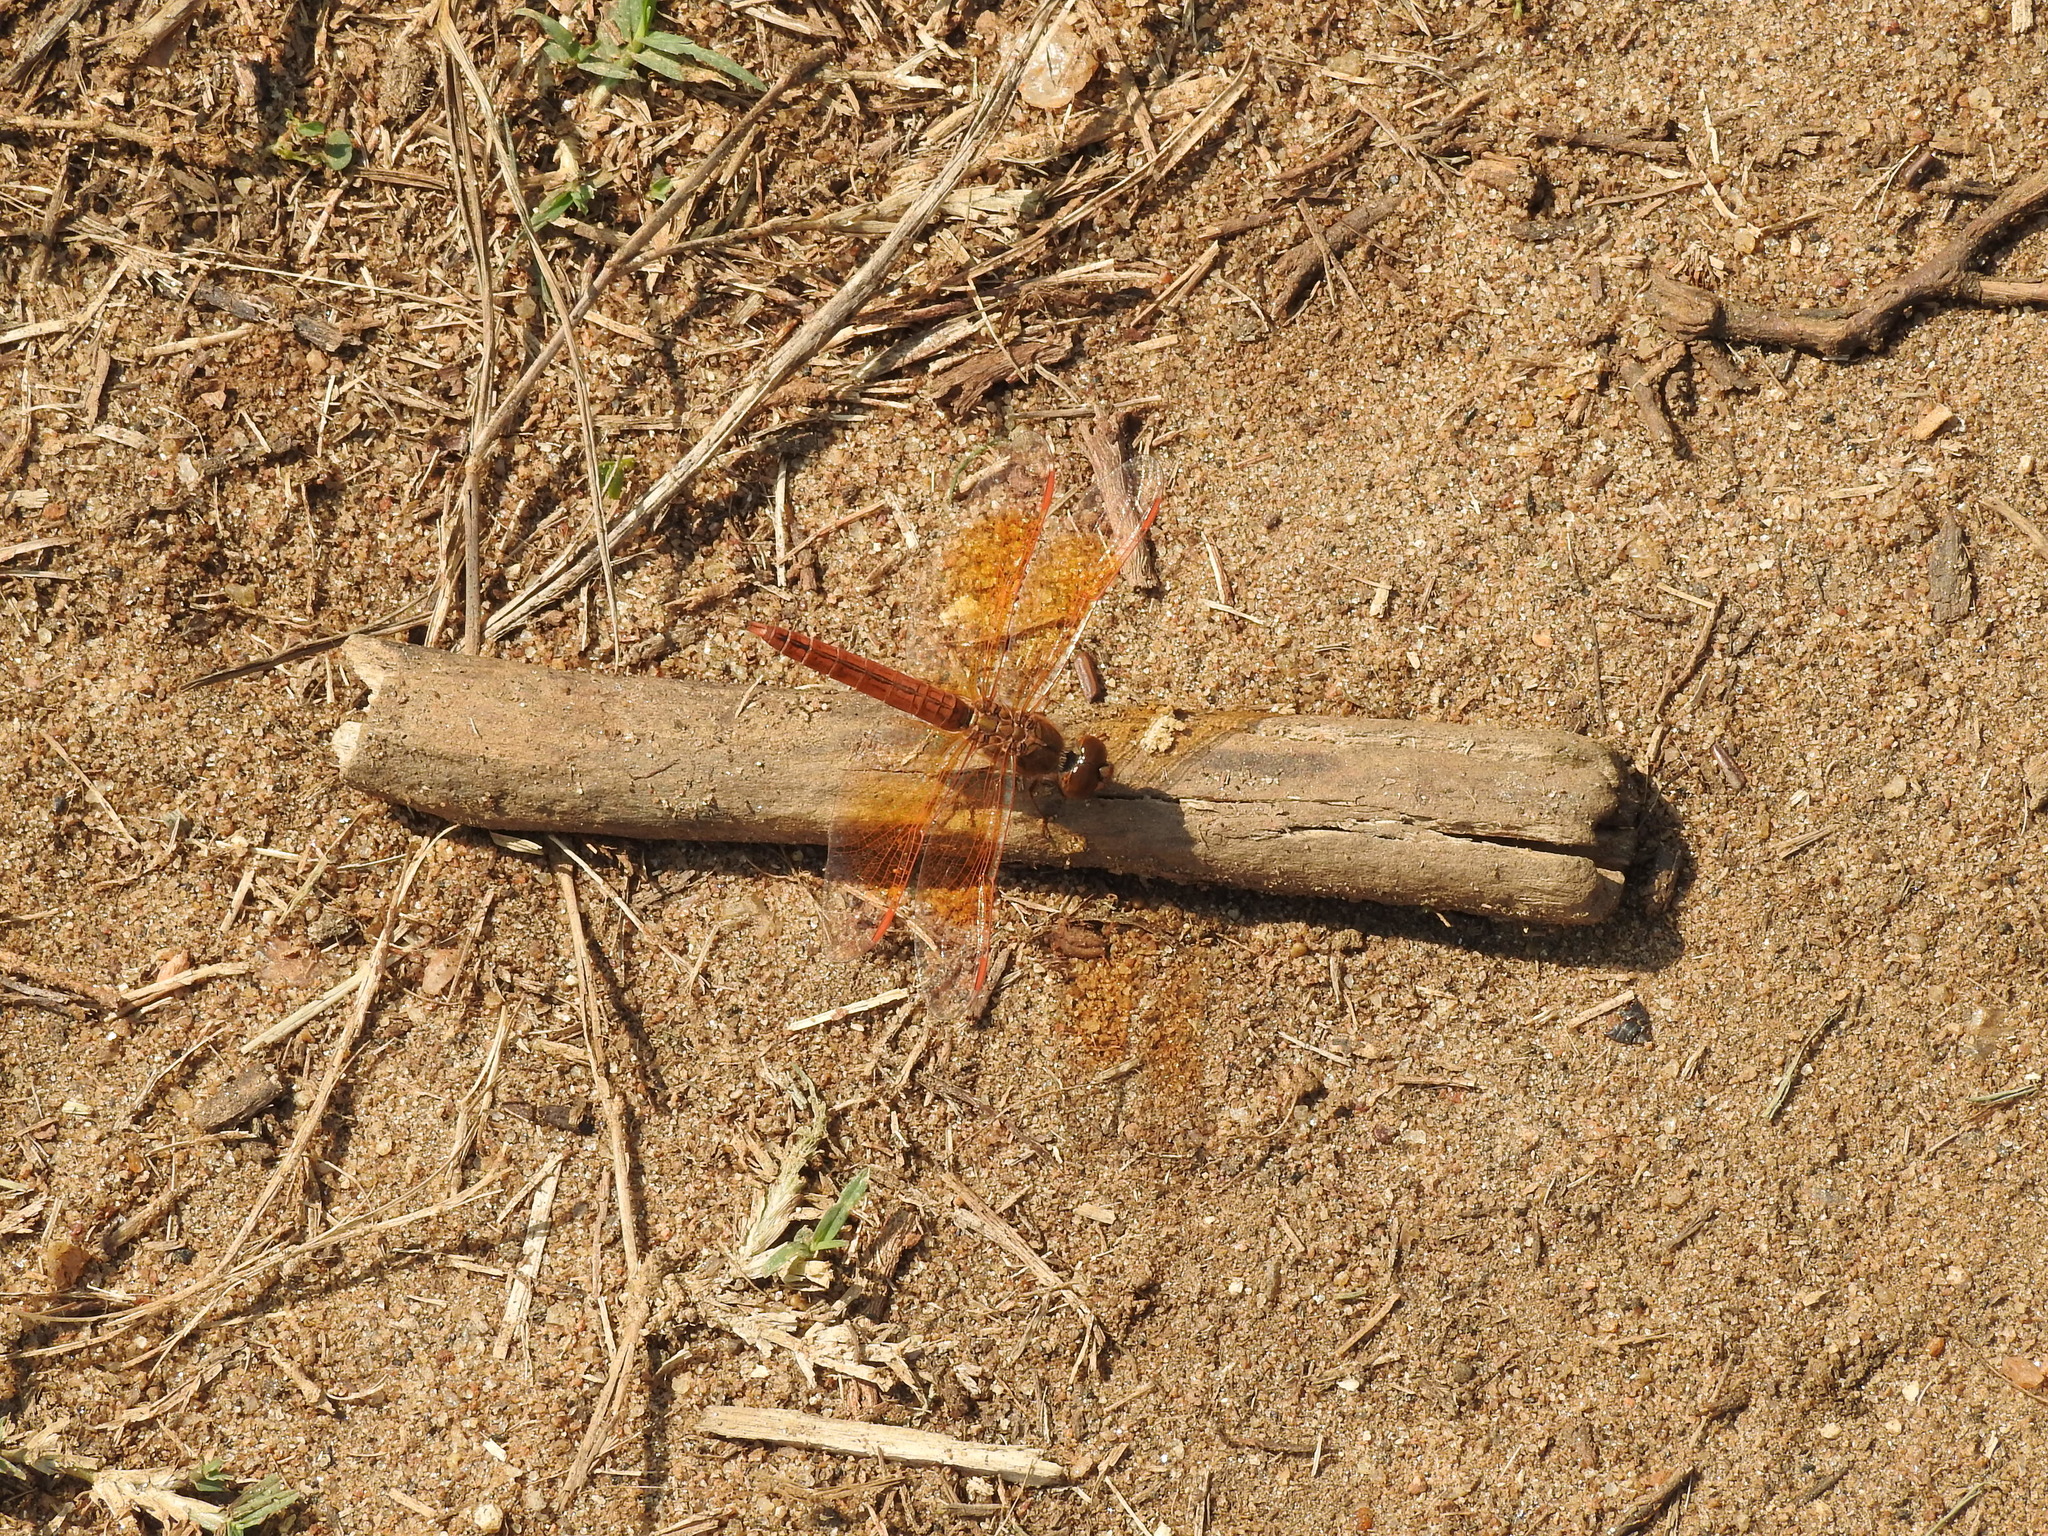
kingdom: Animalia
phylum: Arthropoda
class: Insecta
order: Odonata
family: Libellulidae
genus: Brachythemis
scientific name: Brachythemis contaminata
